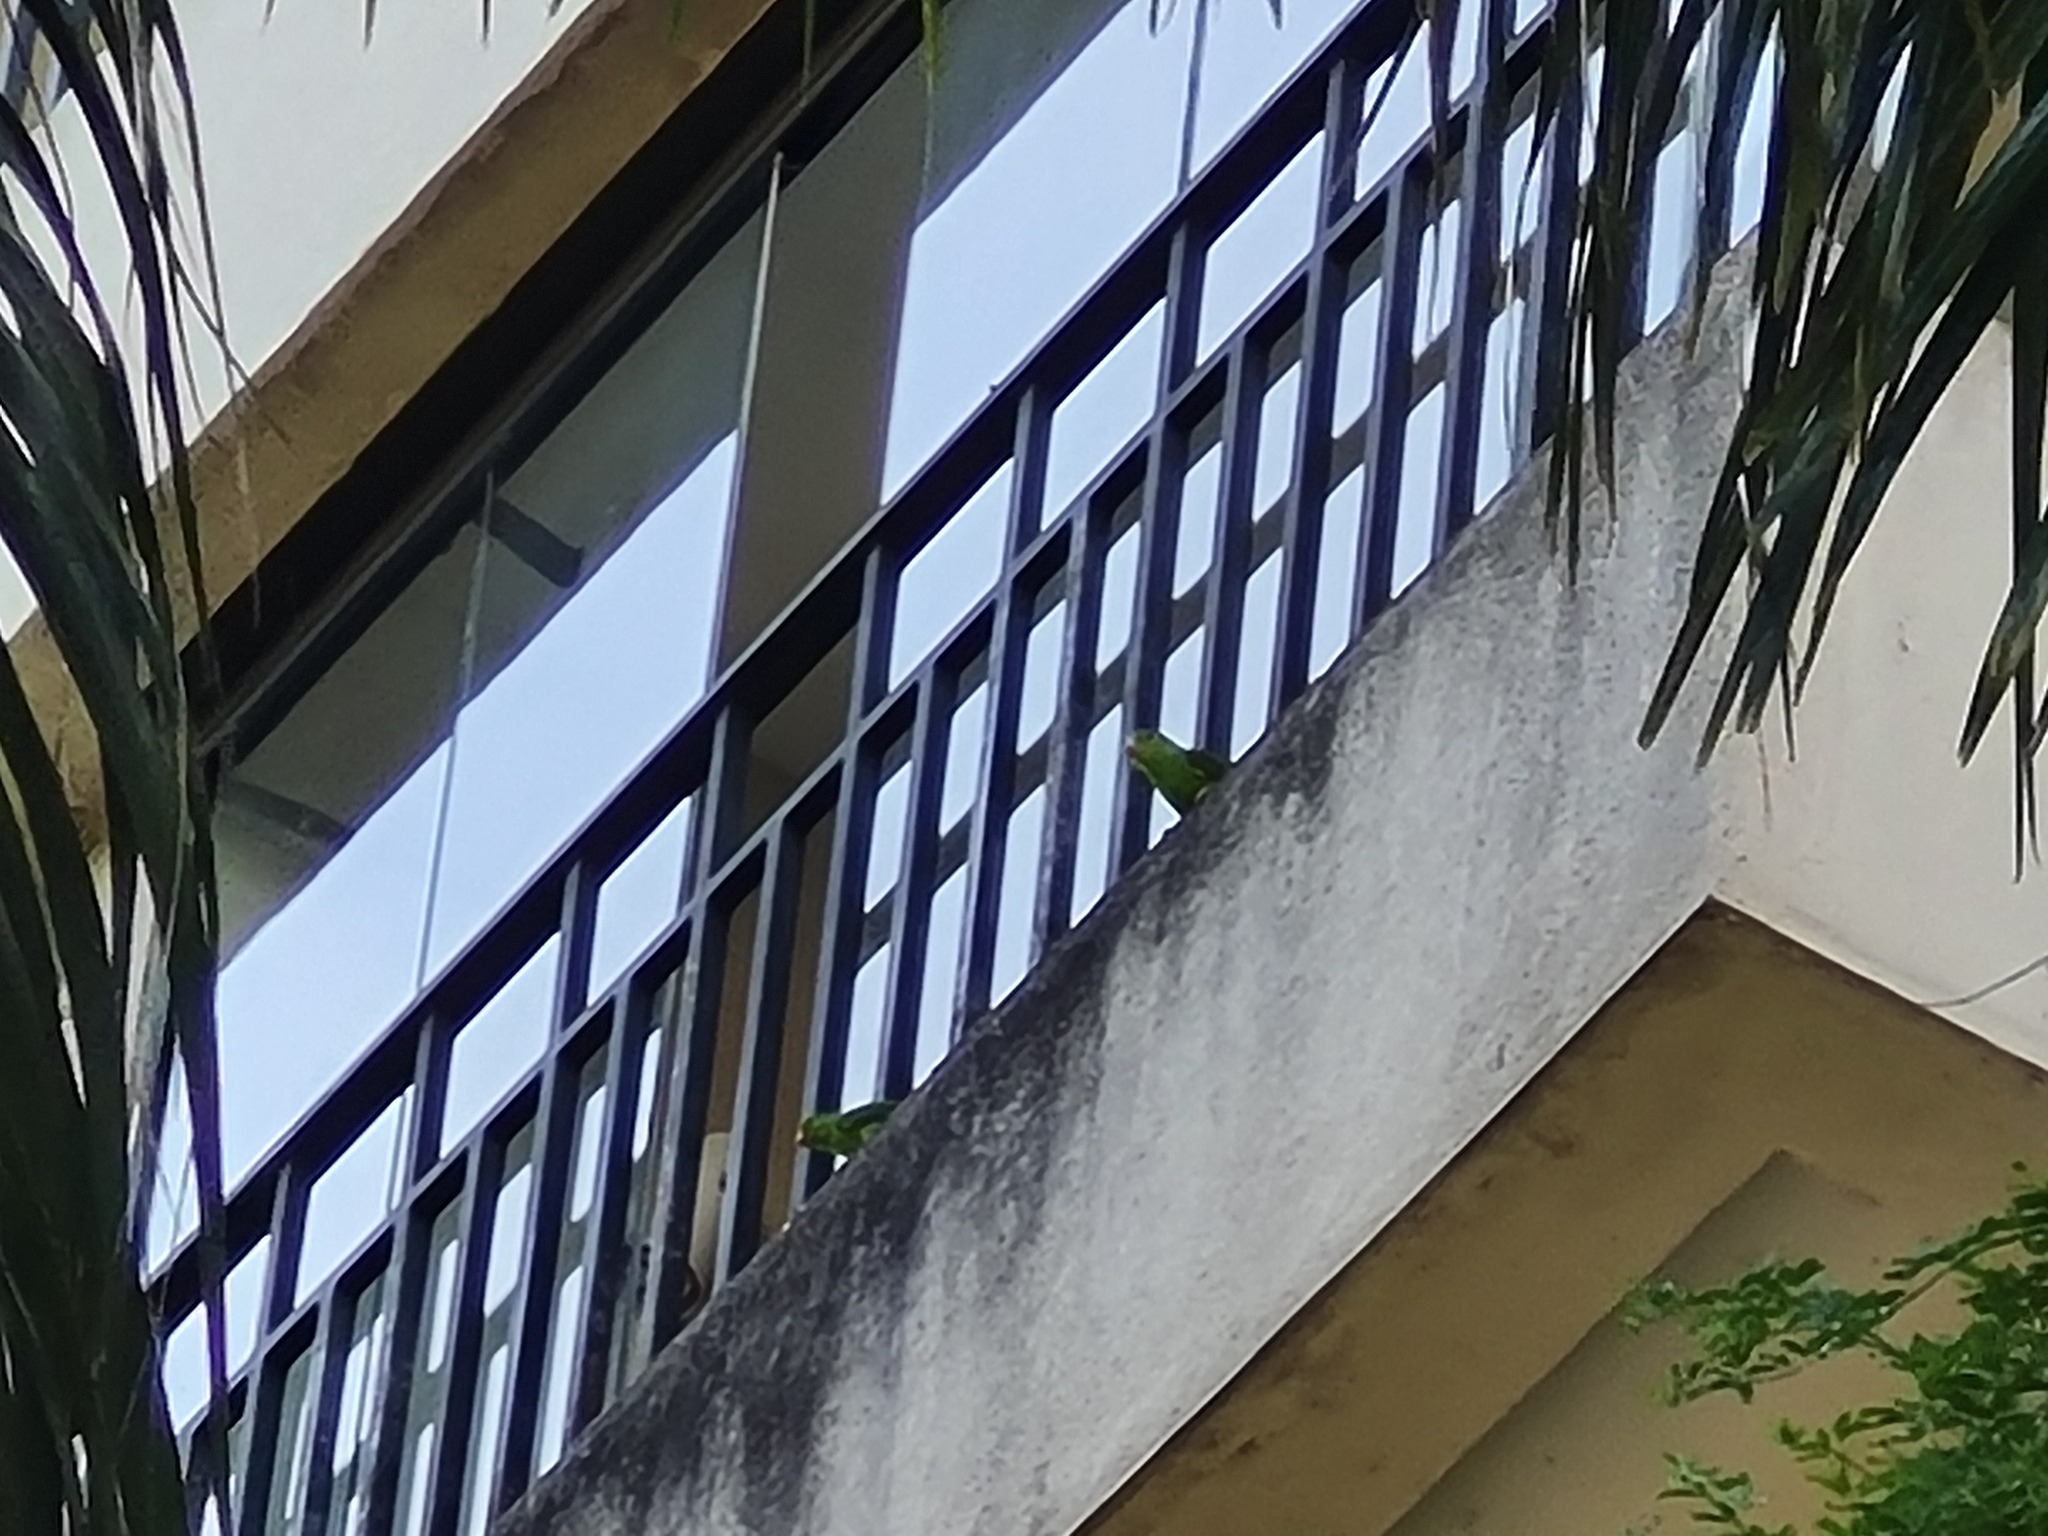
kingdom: Animalia
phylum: Chordata
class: Aves
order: Psittaciformes
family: Psittacidae
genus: Brotogeris
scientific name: Brotogeris tirica
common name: Plain parakeet
